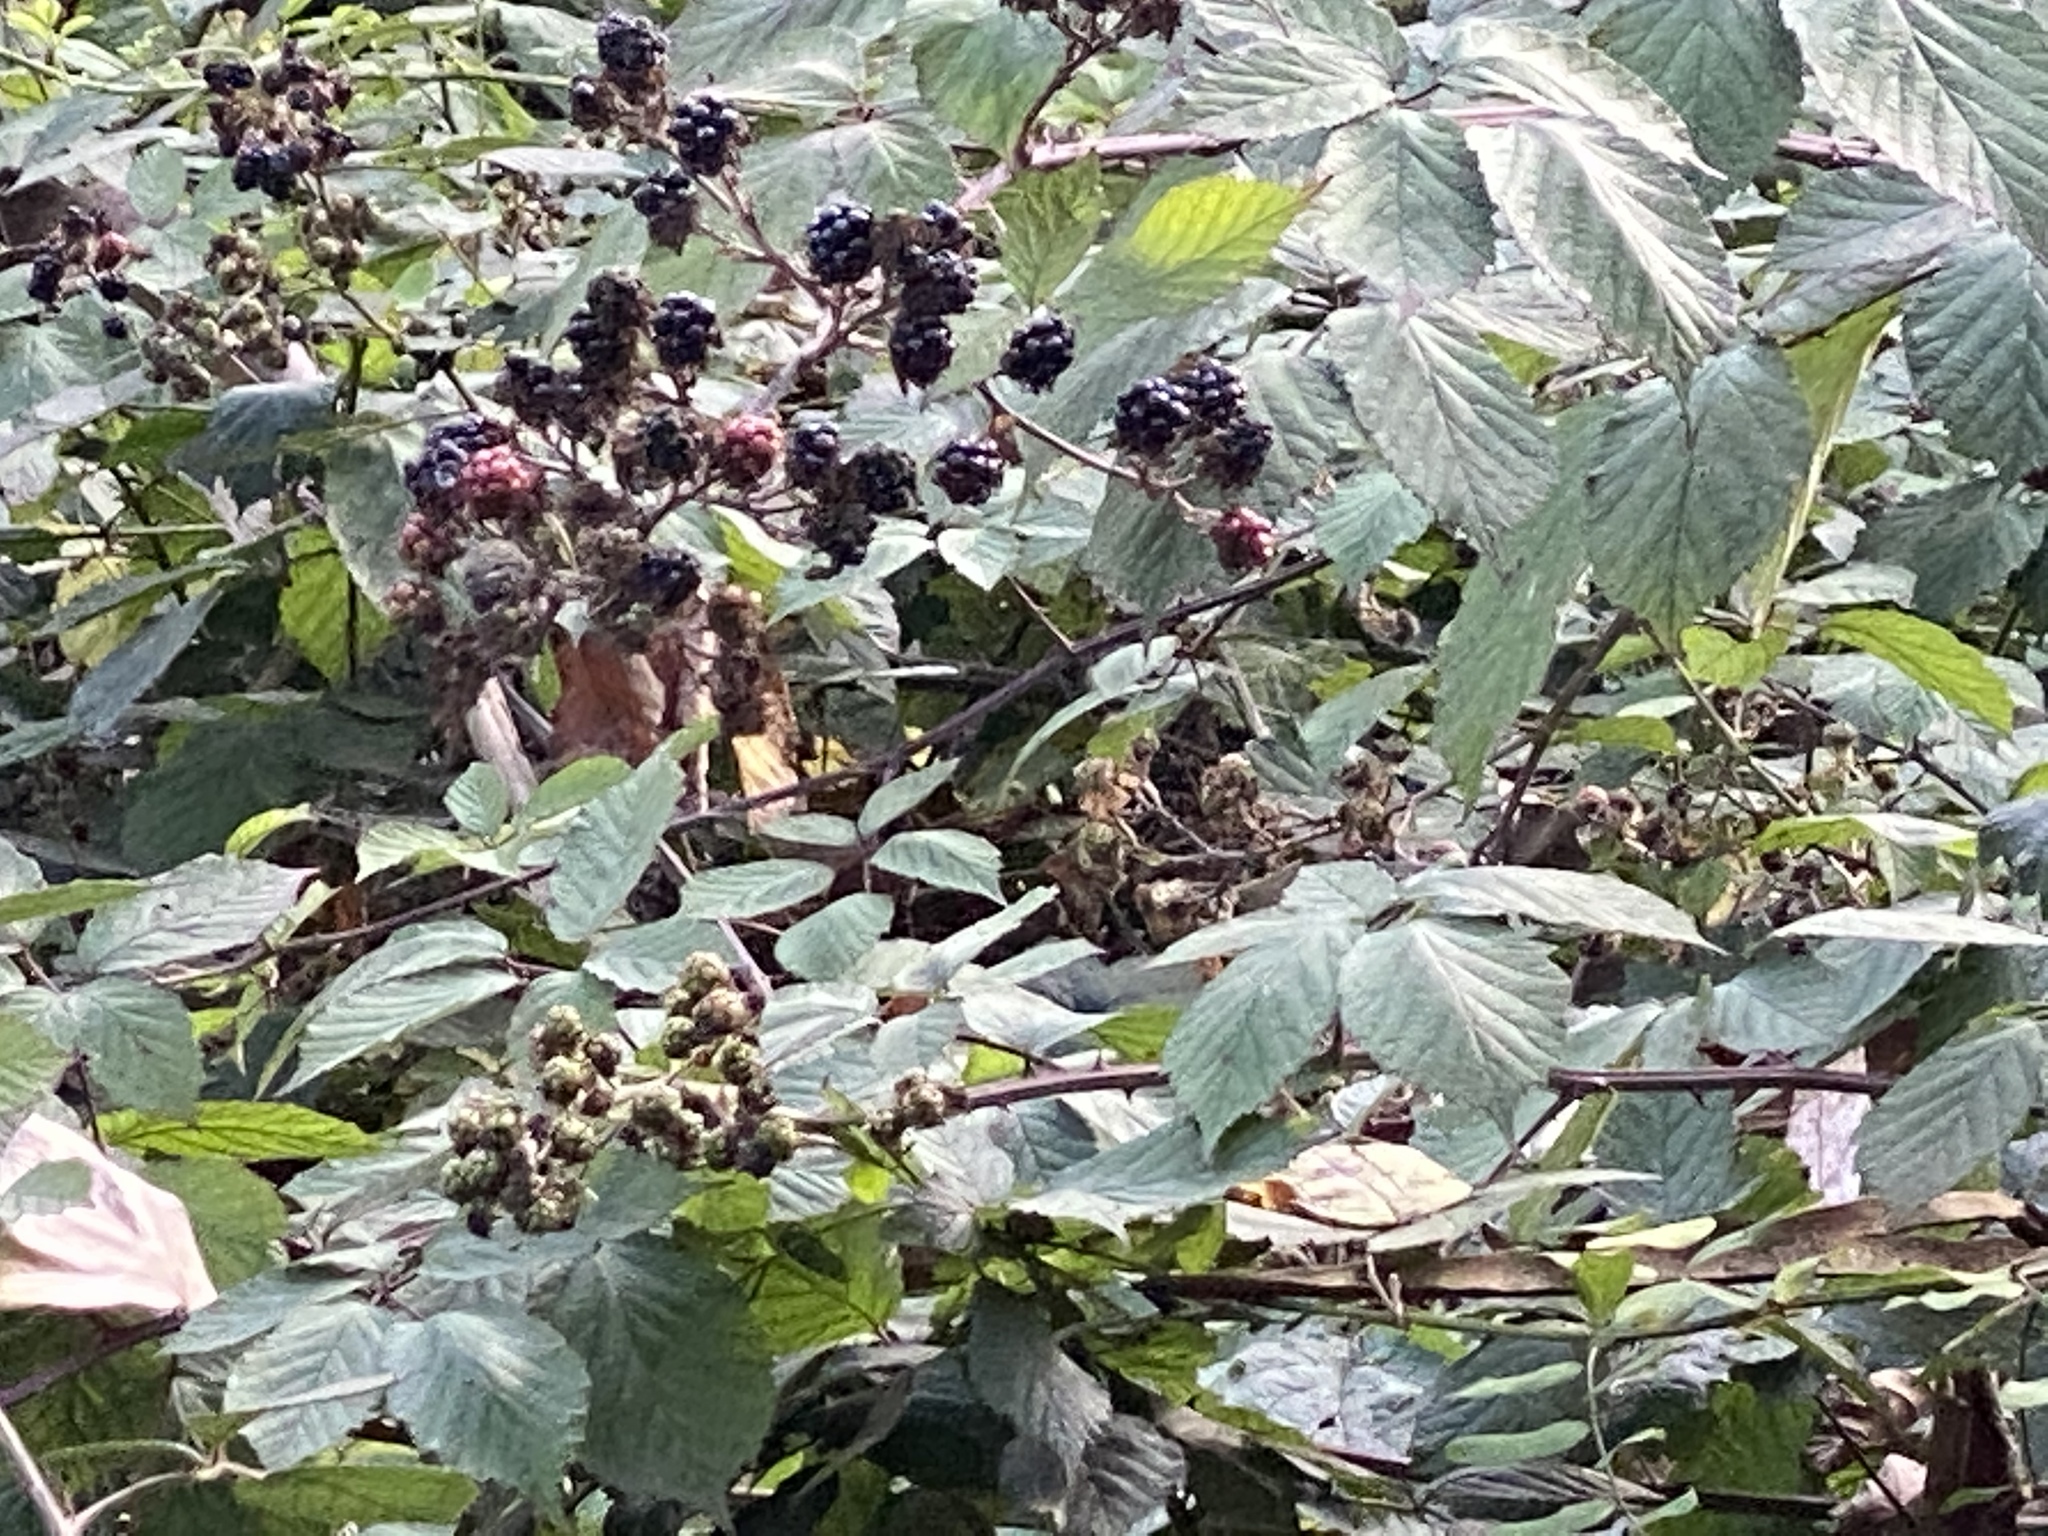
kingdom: Plantae
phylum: Tracheophyta
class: Magnoliopsida
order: Rosales
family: Rosaceae
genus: Rubus
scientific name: Rubus armeniacus
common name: Himalayan blackberry
